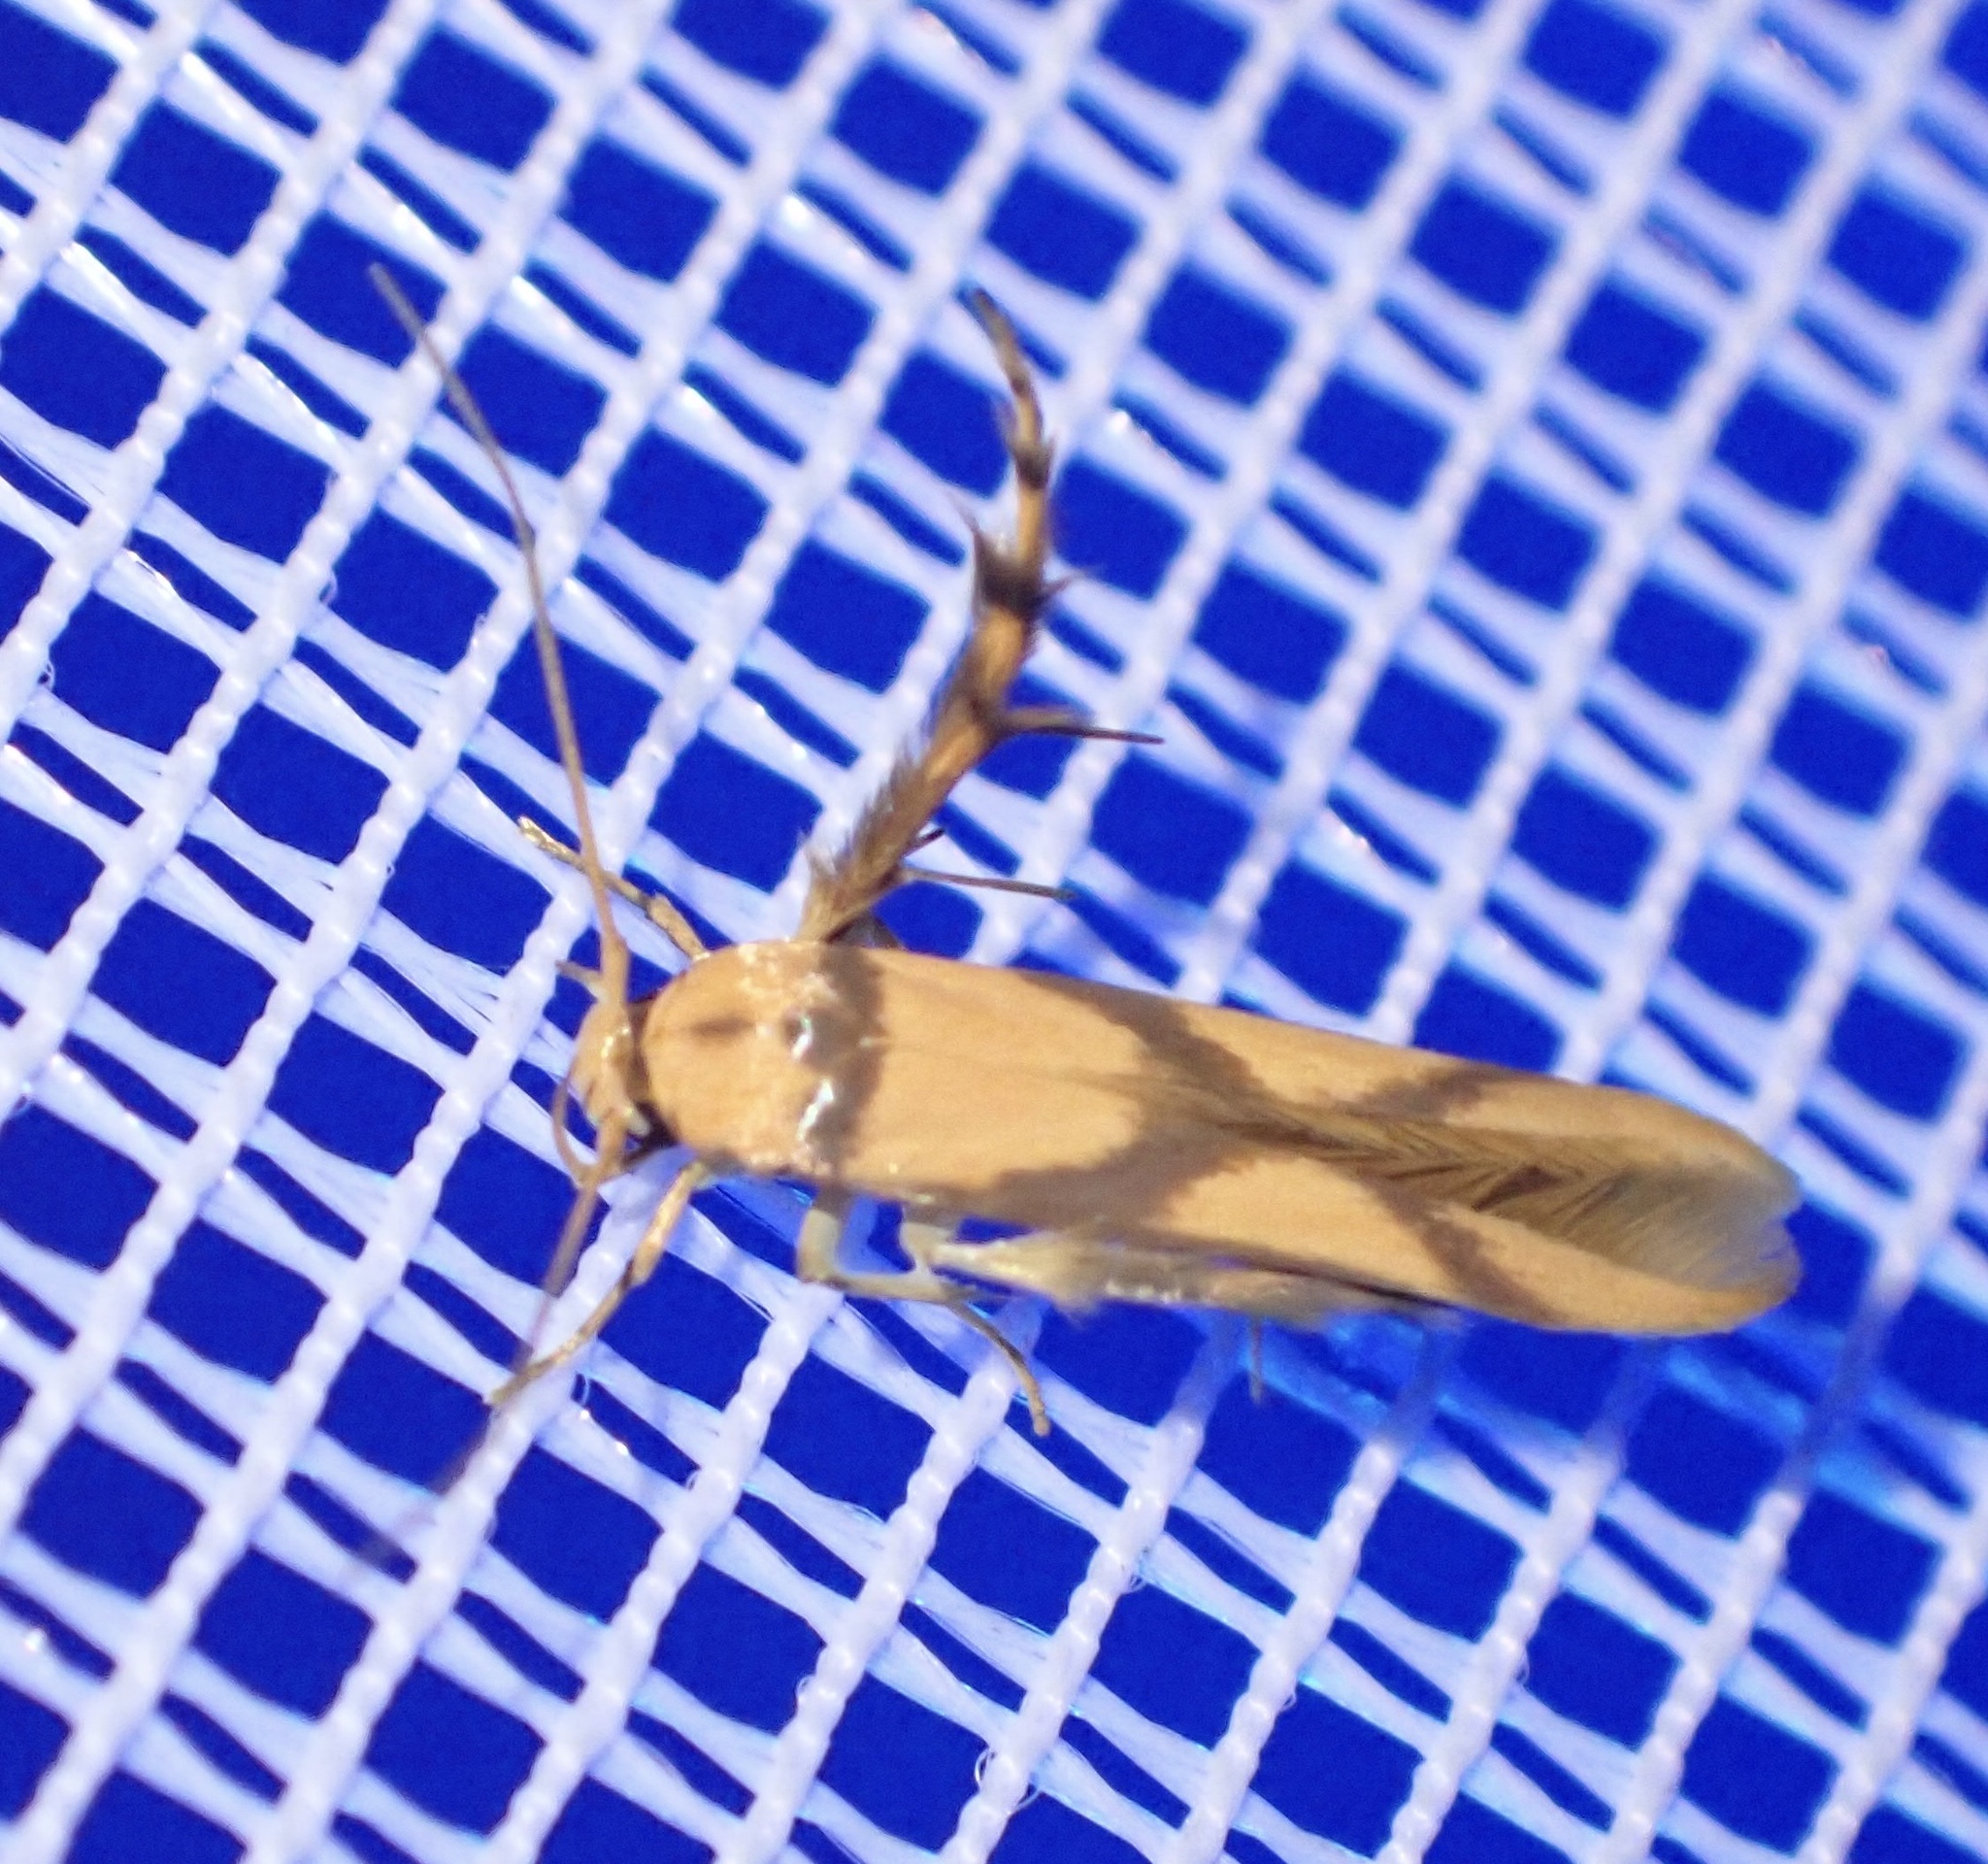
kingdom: Animalia
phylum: Arthropoda
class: Insecta
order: Lepidoptera
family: Stathmopodidae
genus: Stathmopoda
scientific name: Stathmopoda crassella
